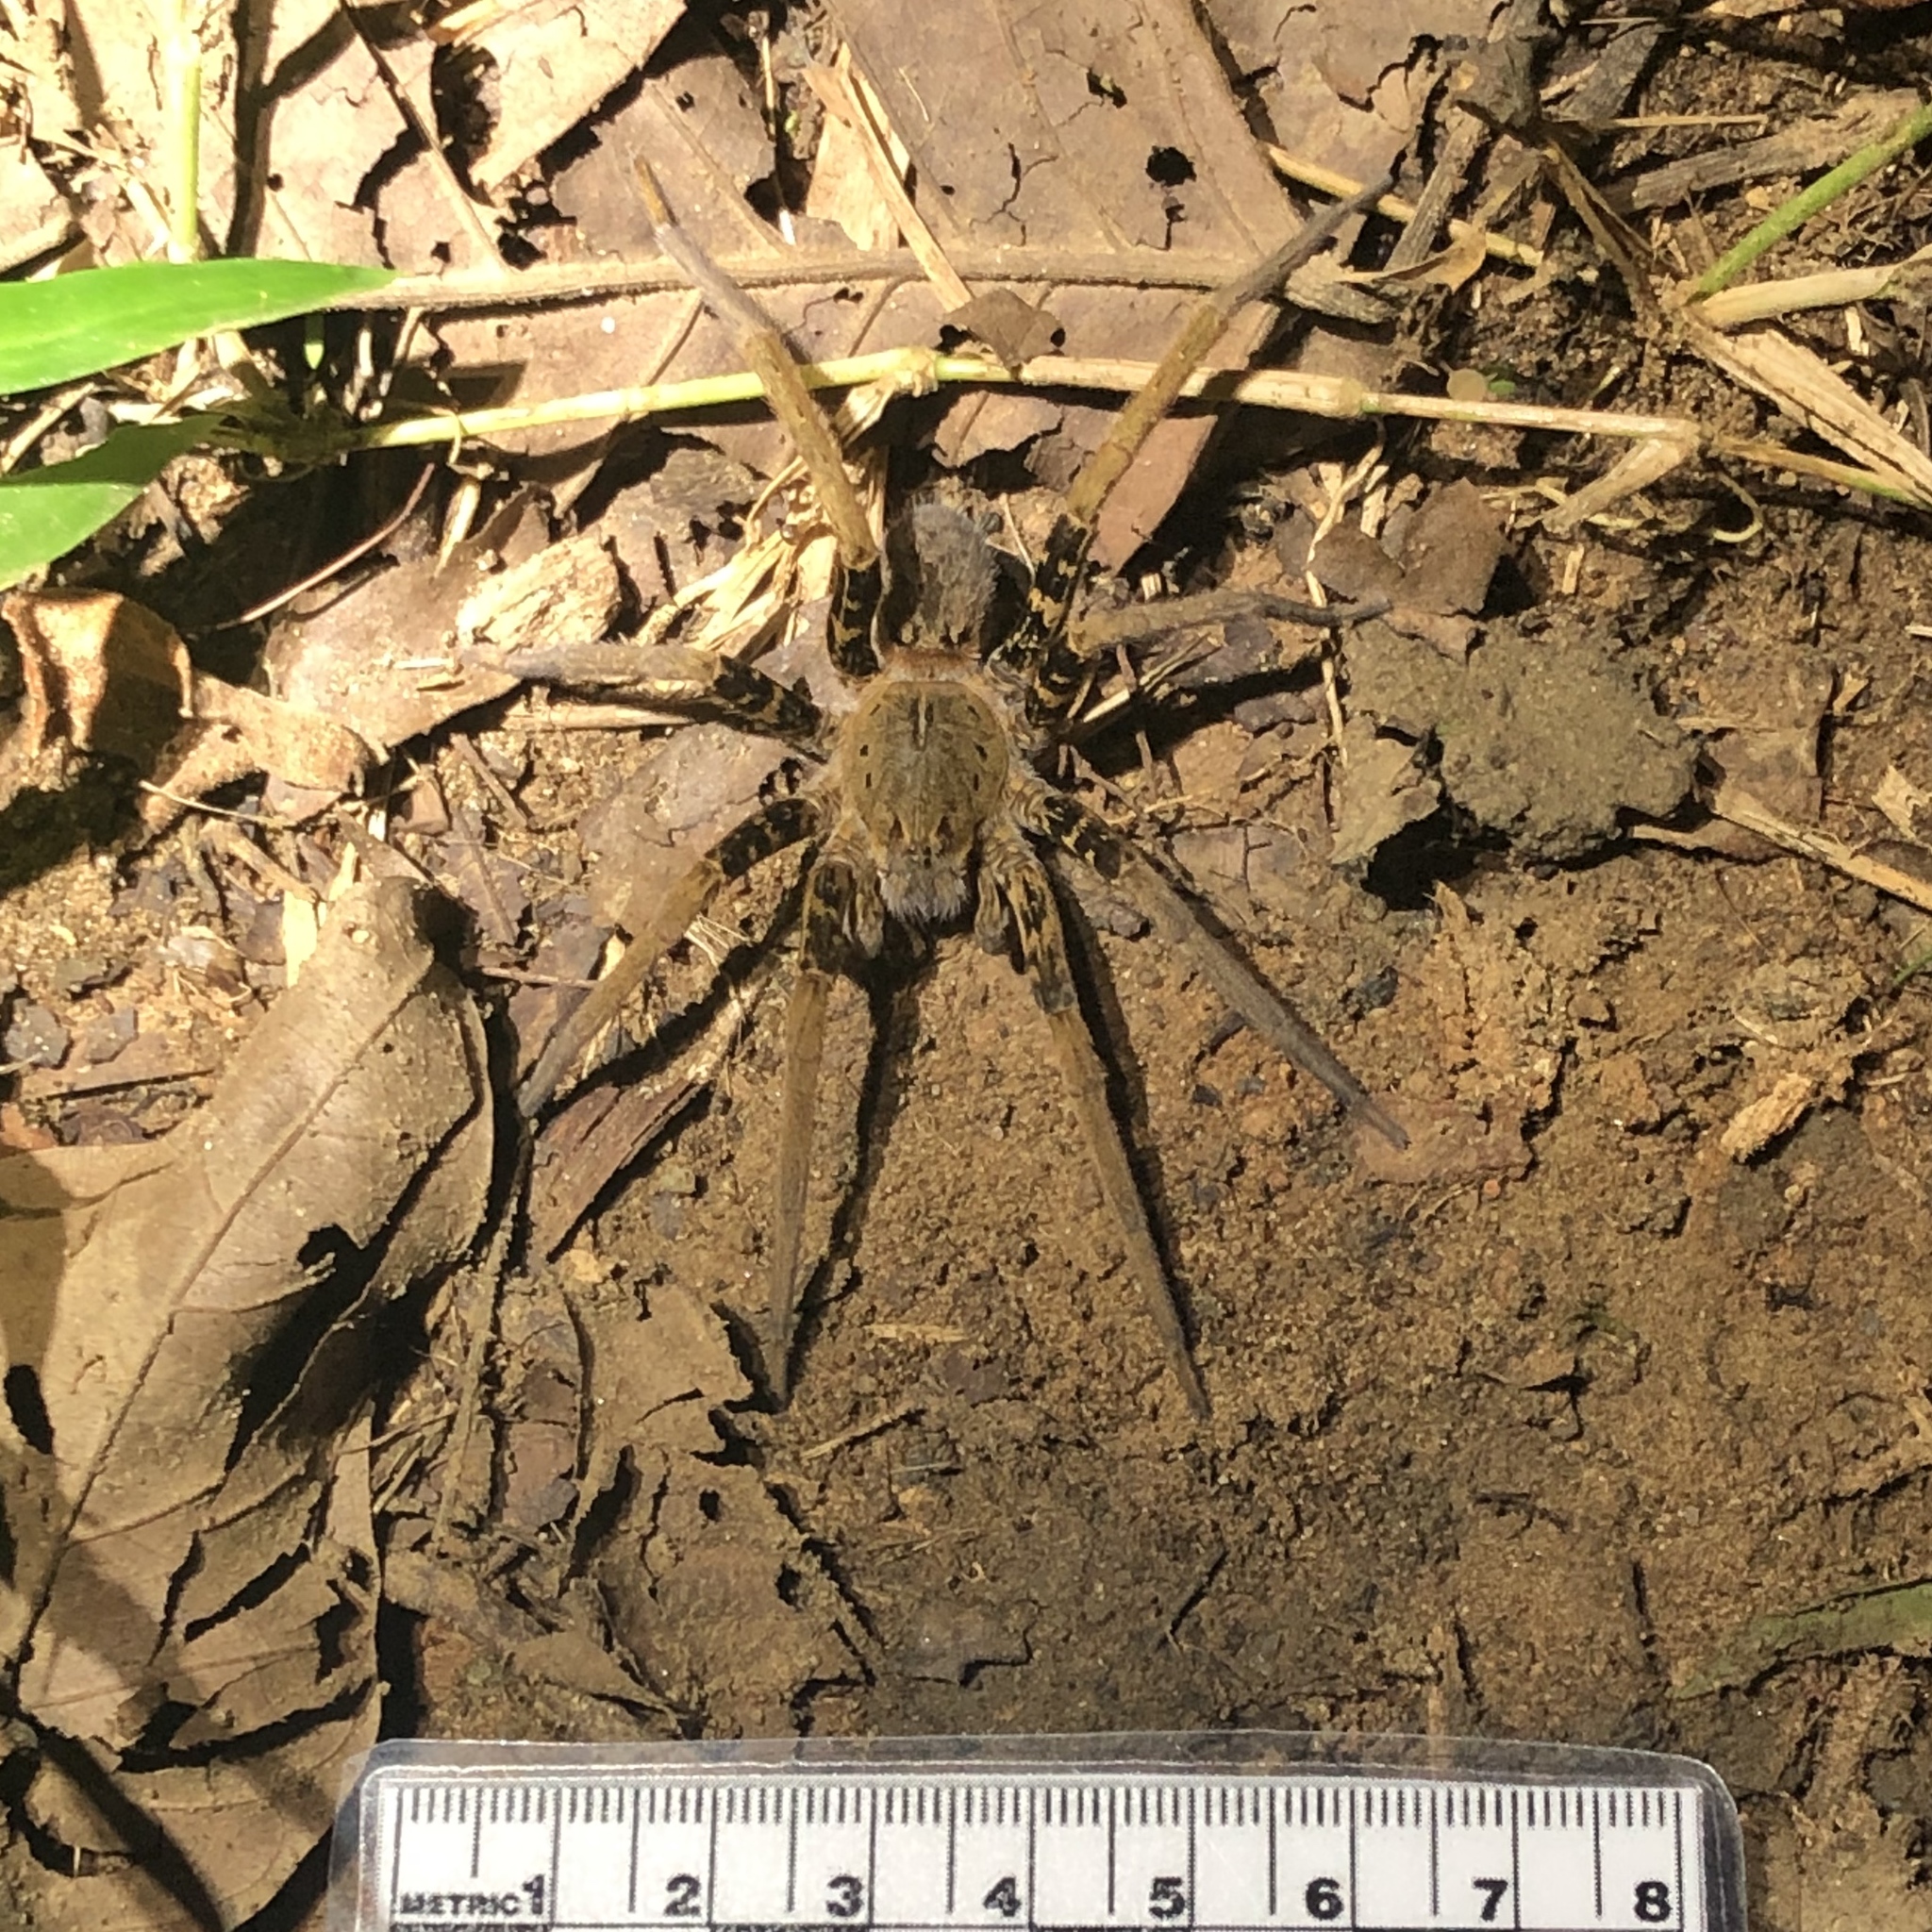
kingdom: Animalia
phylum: Arthropoda
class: Arachnida
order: Araneae
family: Ctenidae
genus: Ancylometes
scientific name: Ancylometes bogotensis
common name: Wandering spiders
